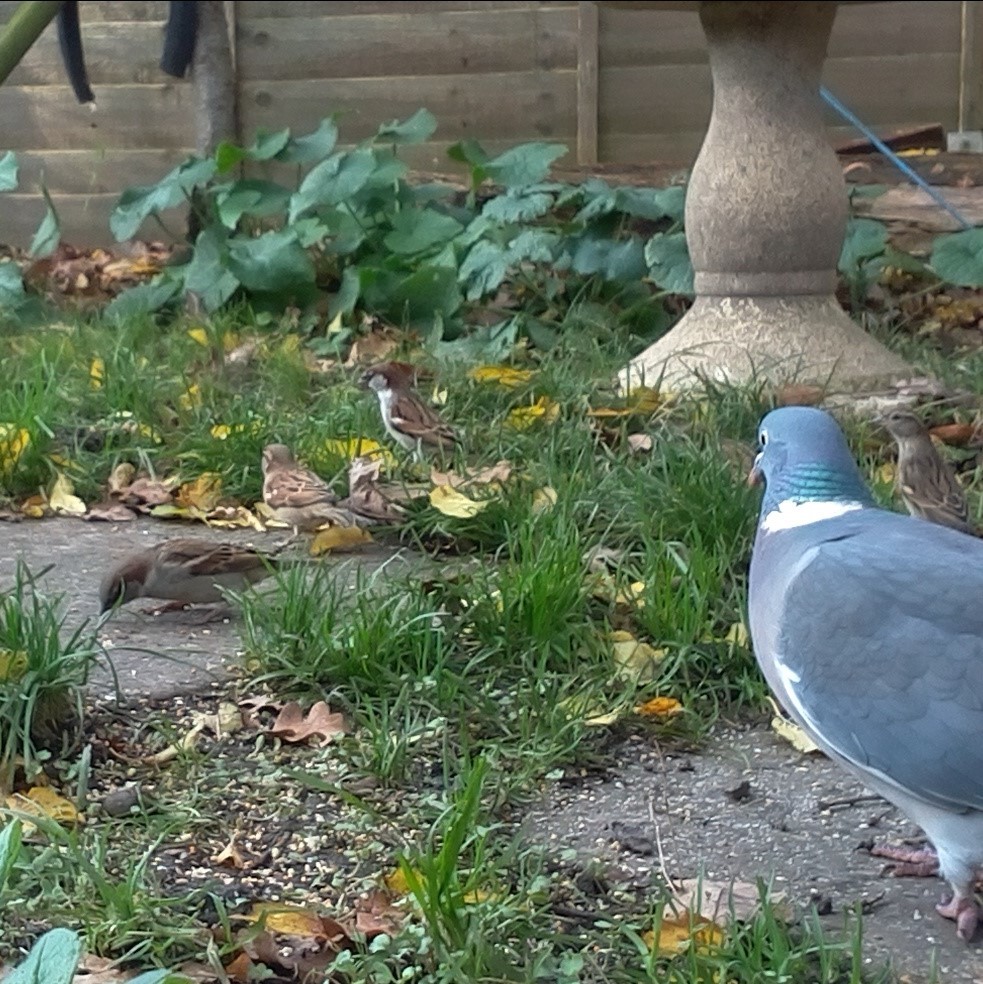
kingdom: Animalia
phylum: Chordata
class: Aves
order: Passeriformes
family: Passeridae
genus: Passer
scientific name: Passer domesticus
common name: House sparrow
